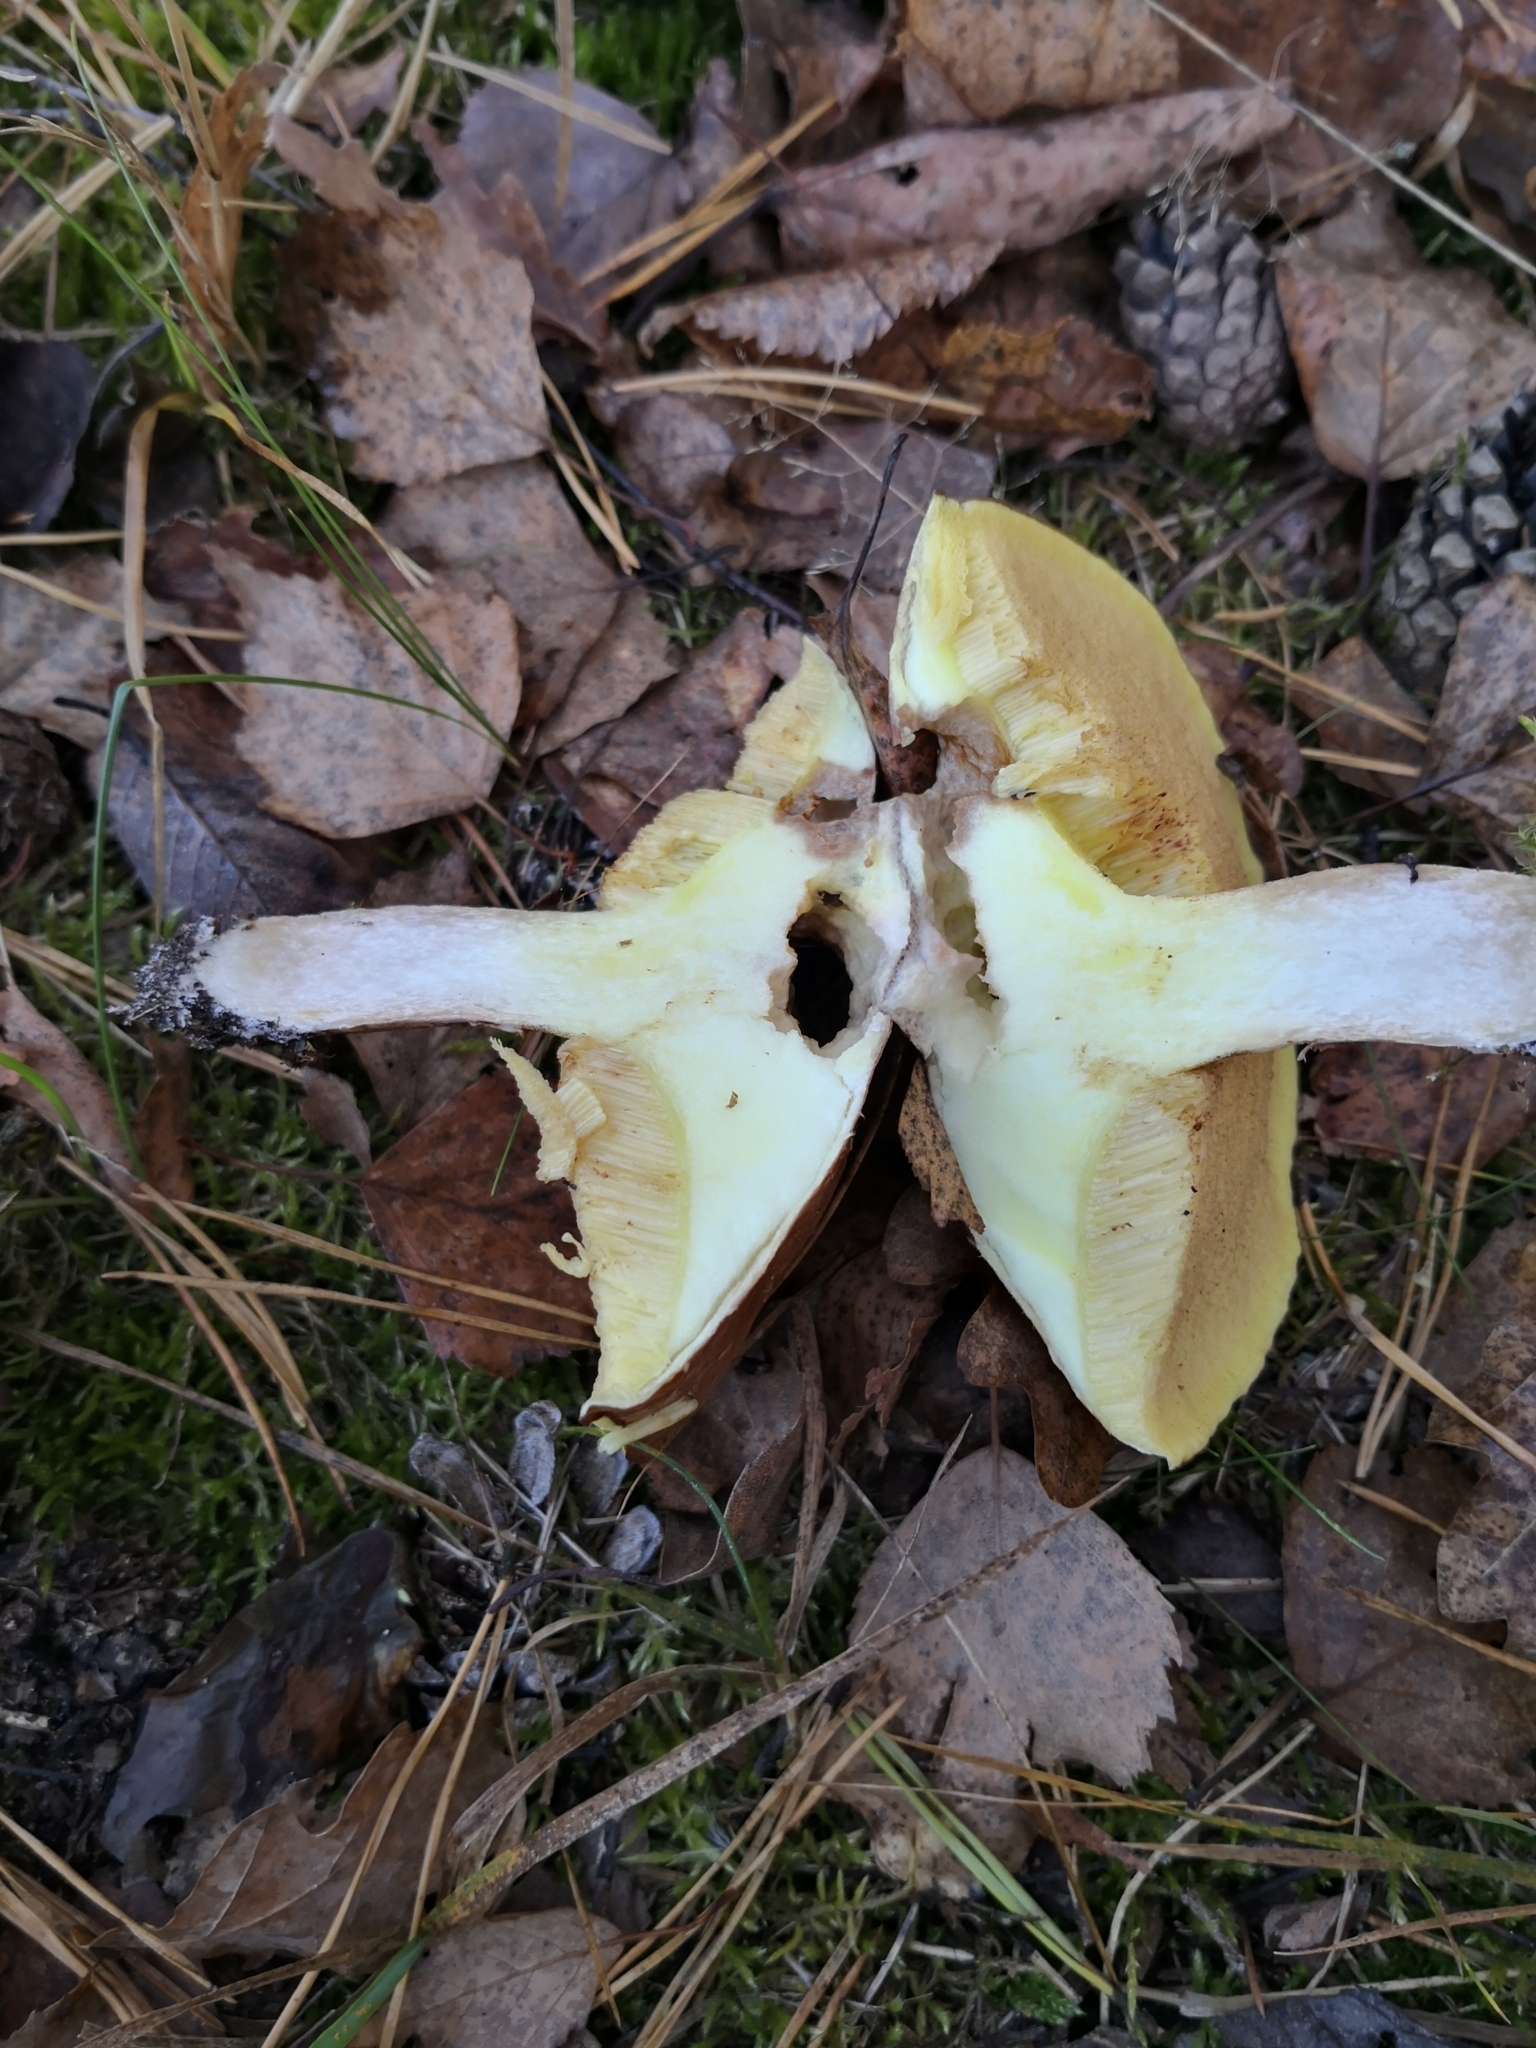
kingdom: Fungi
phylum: Basidiomycota
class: Agaricomycetes
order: Boletales
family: Suillaceae
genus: Suillus
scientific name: Suillus luteus
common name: Slippery jack
